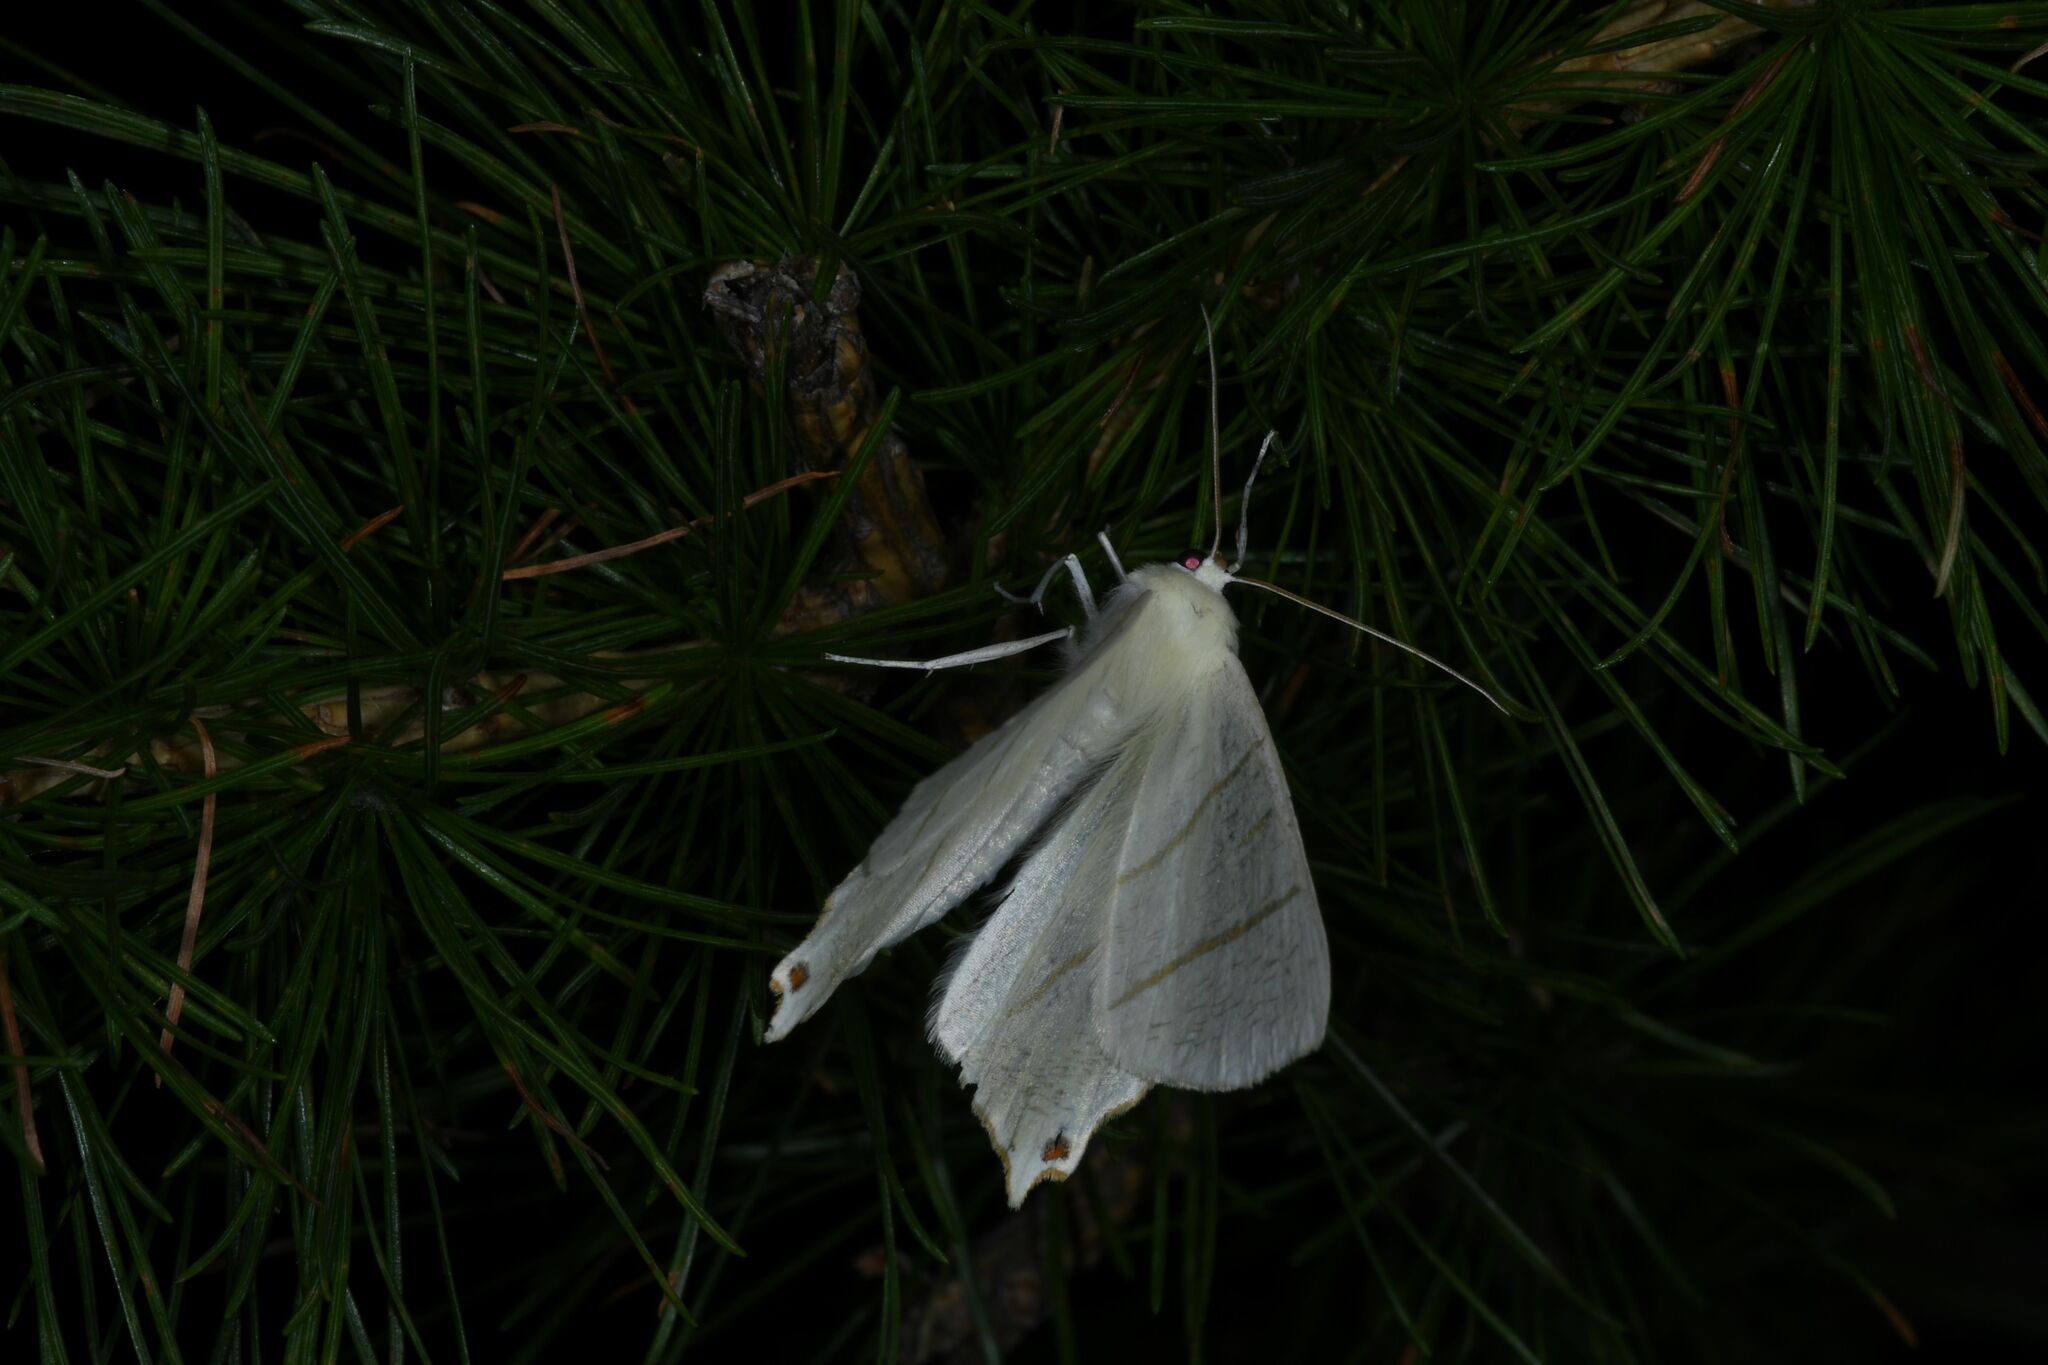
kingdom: Animalia
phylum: Arthropoda
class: Insecta
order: Lepidoptera
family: Geometridae
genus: Ourapteryx
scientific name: Ourapteryx sambucaria
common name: Swallow-tailed moth
